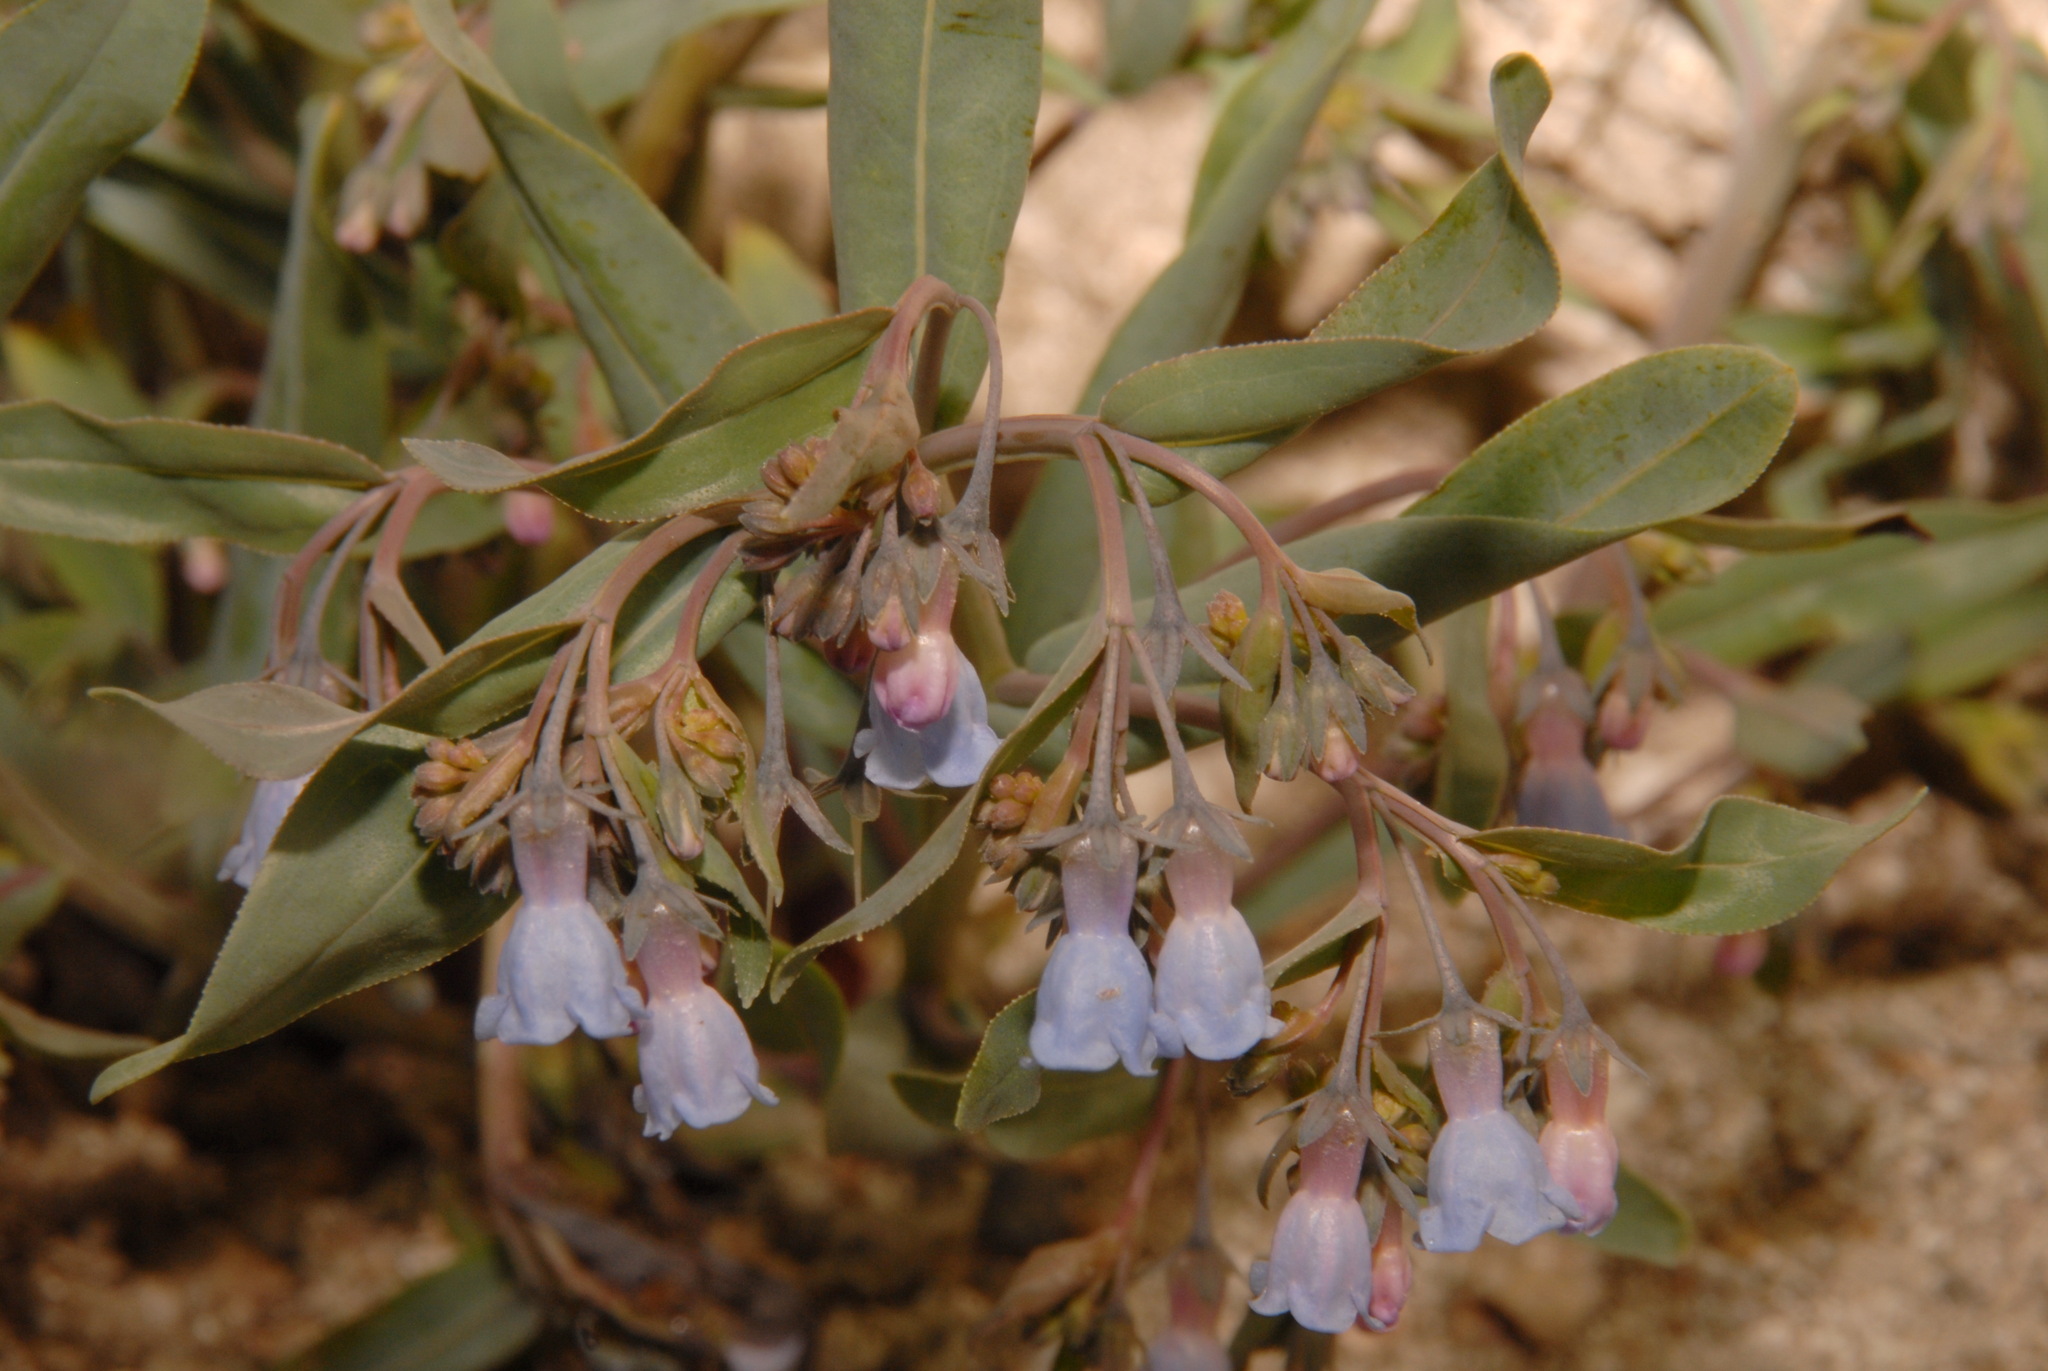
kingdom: Plantae
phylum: Tracheophyta
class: Magnoliopsida
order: Boraginales
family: Boraginaceae
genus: Mertensia
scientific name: Mertensia lanceolata
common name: Lance-leaved bluebells
